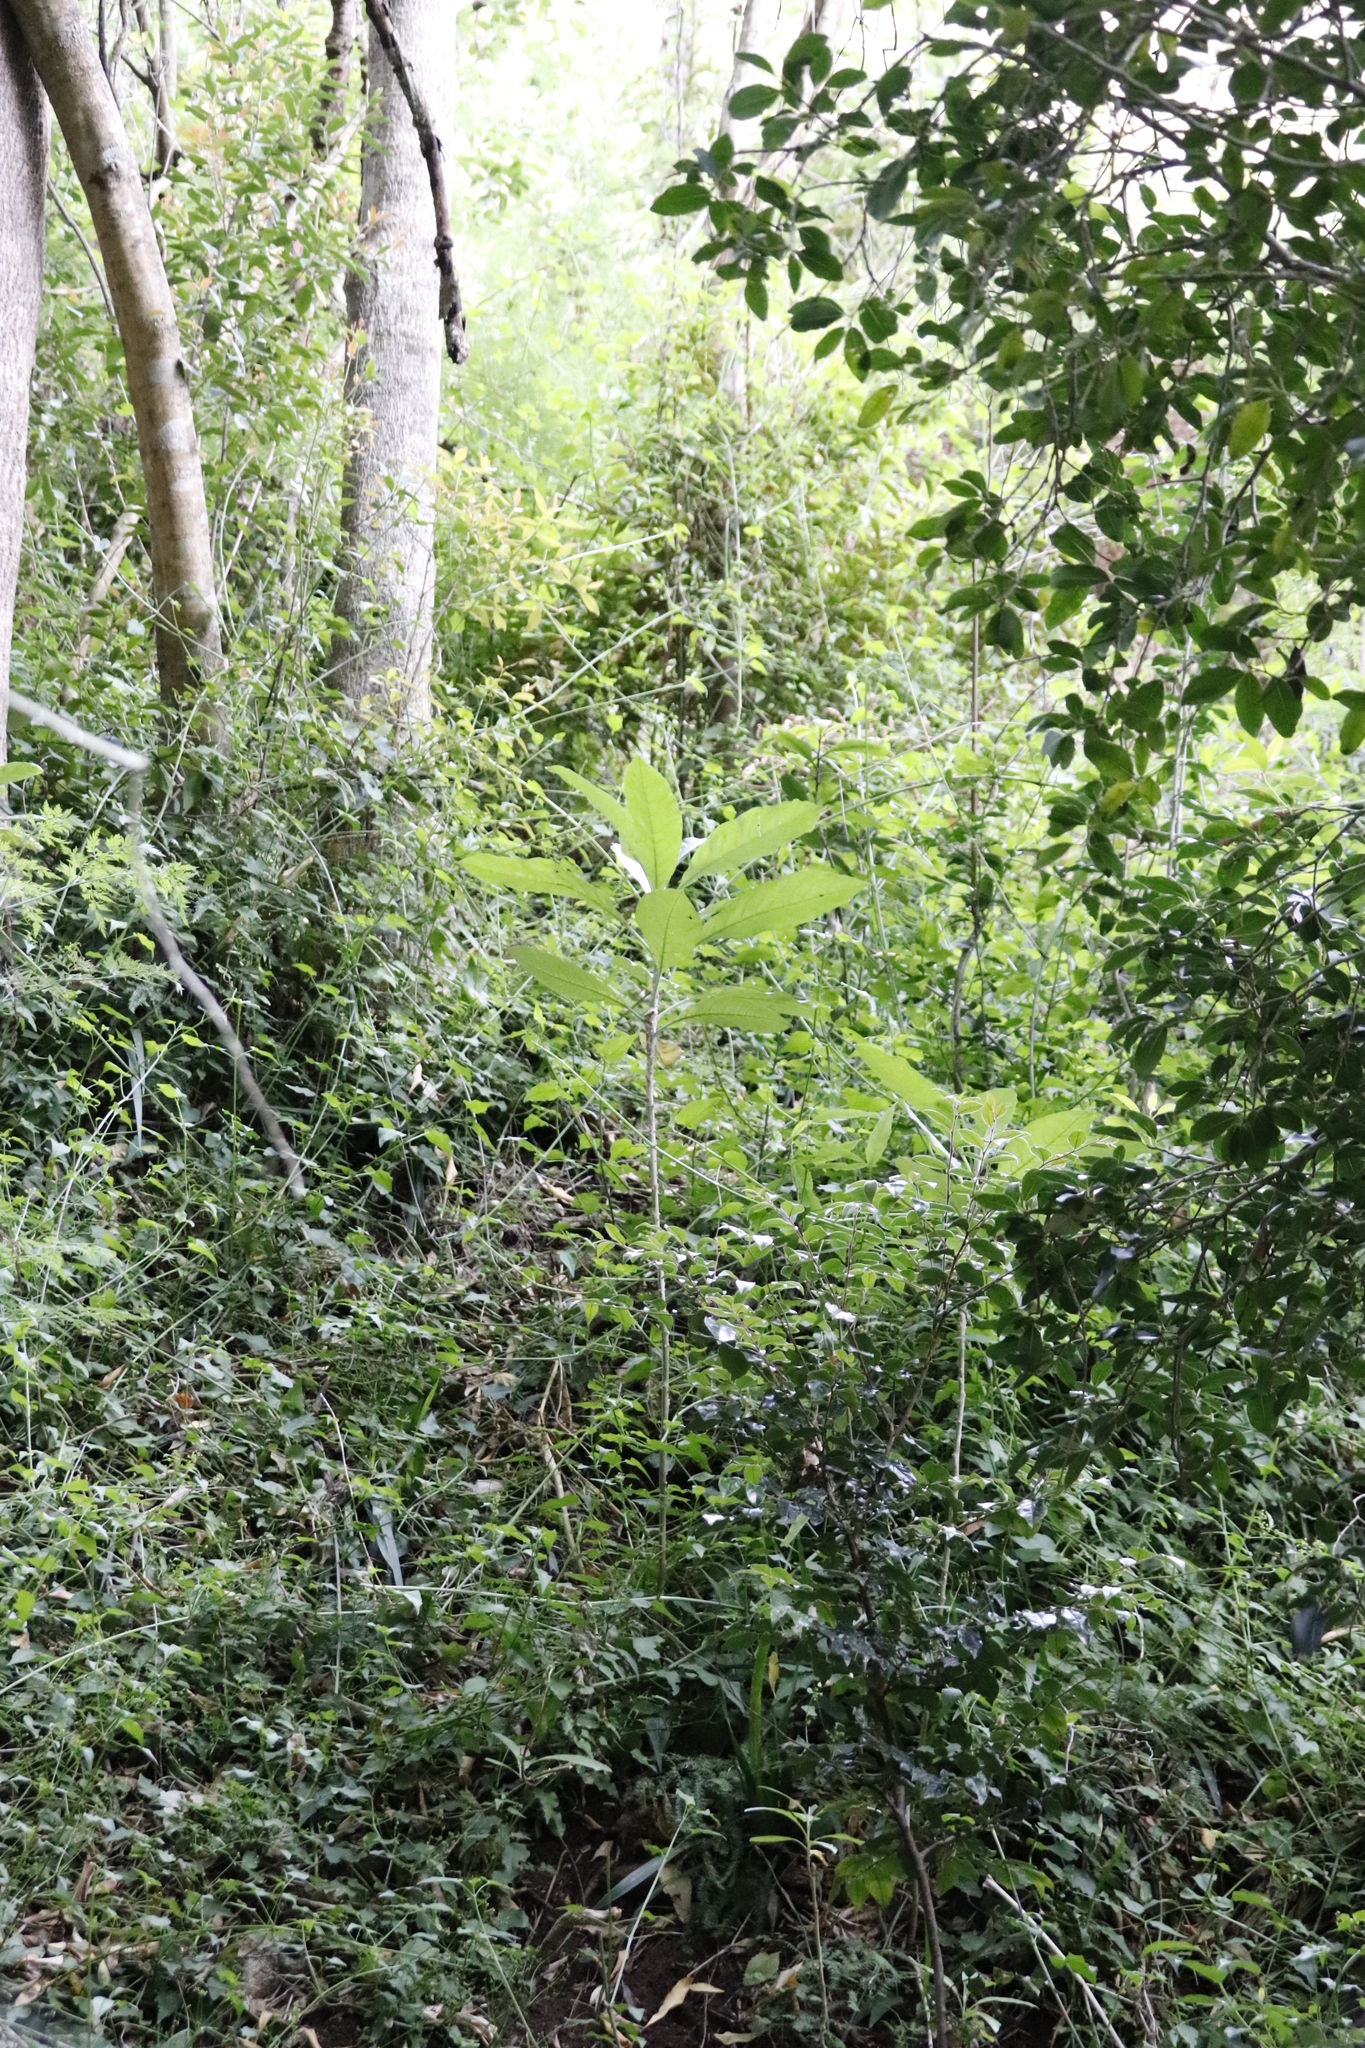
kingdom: Plantae
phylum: Tracheophyta
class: Magnoliopsida
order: Solanales
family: Solanaceae
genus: Solanum
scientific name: Solanum giganteum
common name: Healing-leaf-tree
